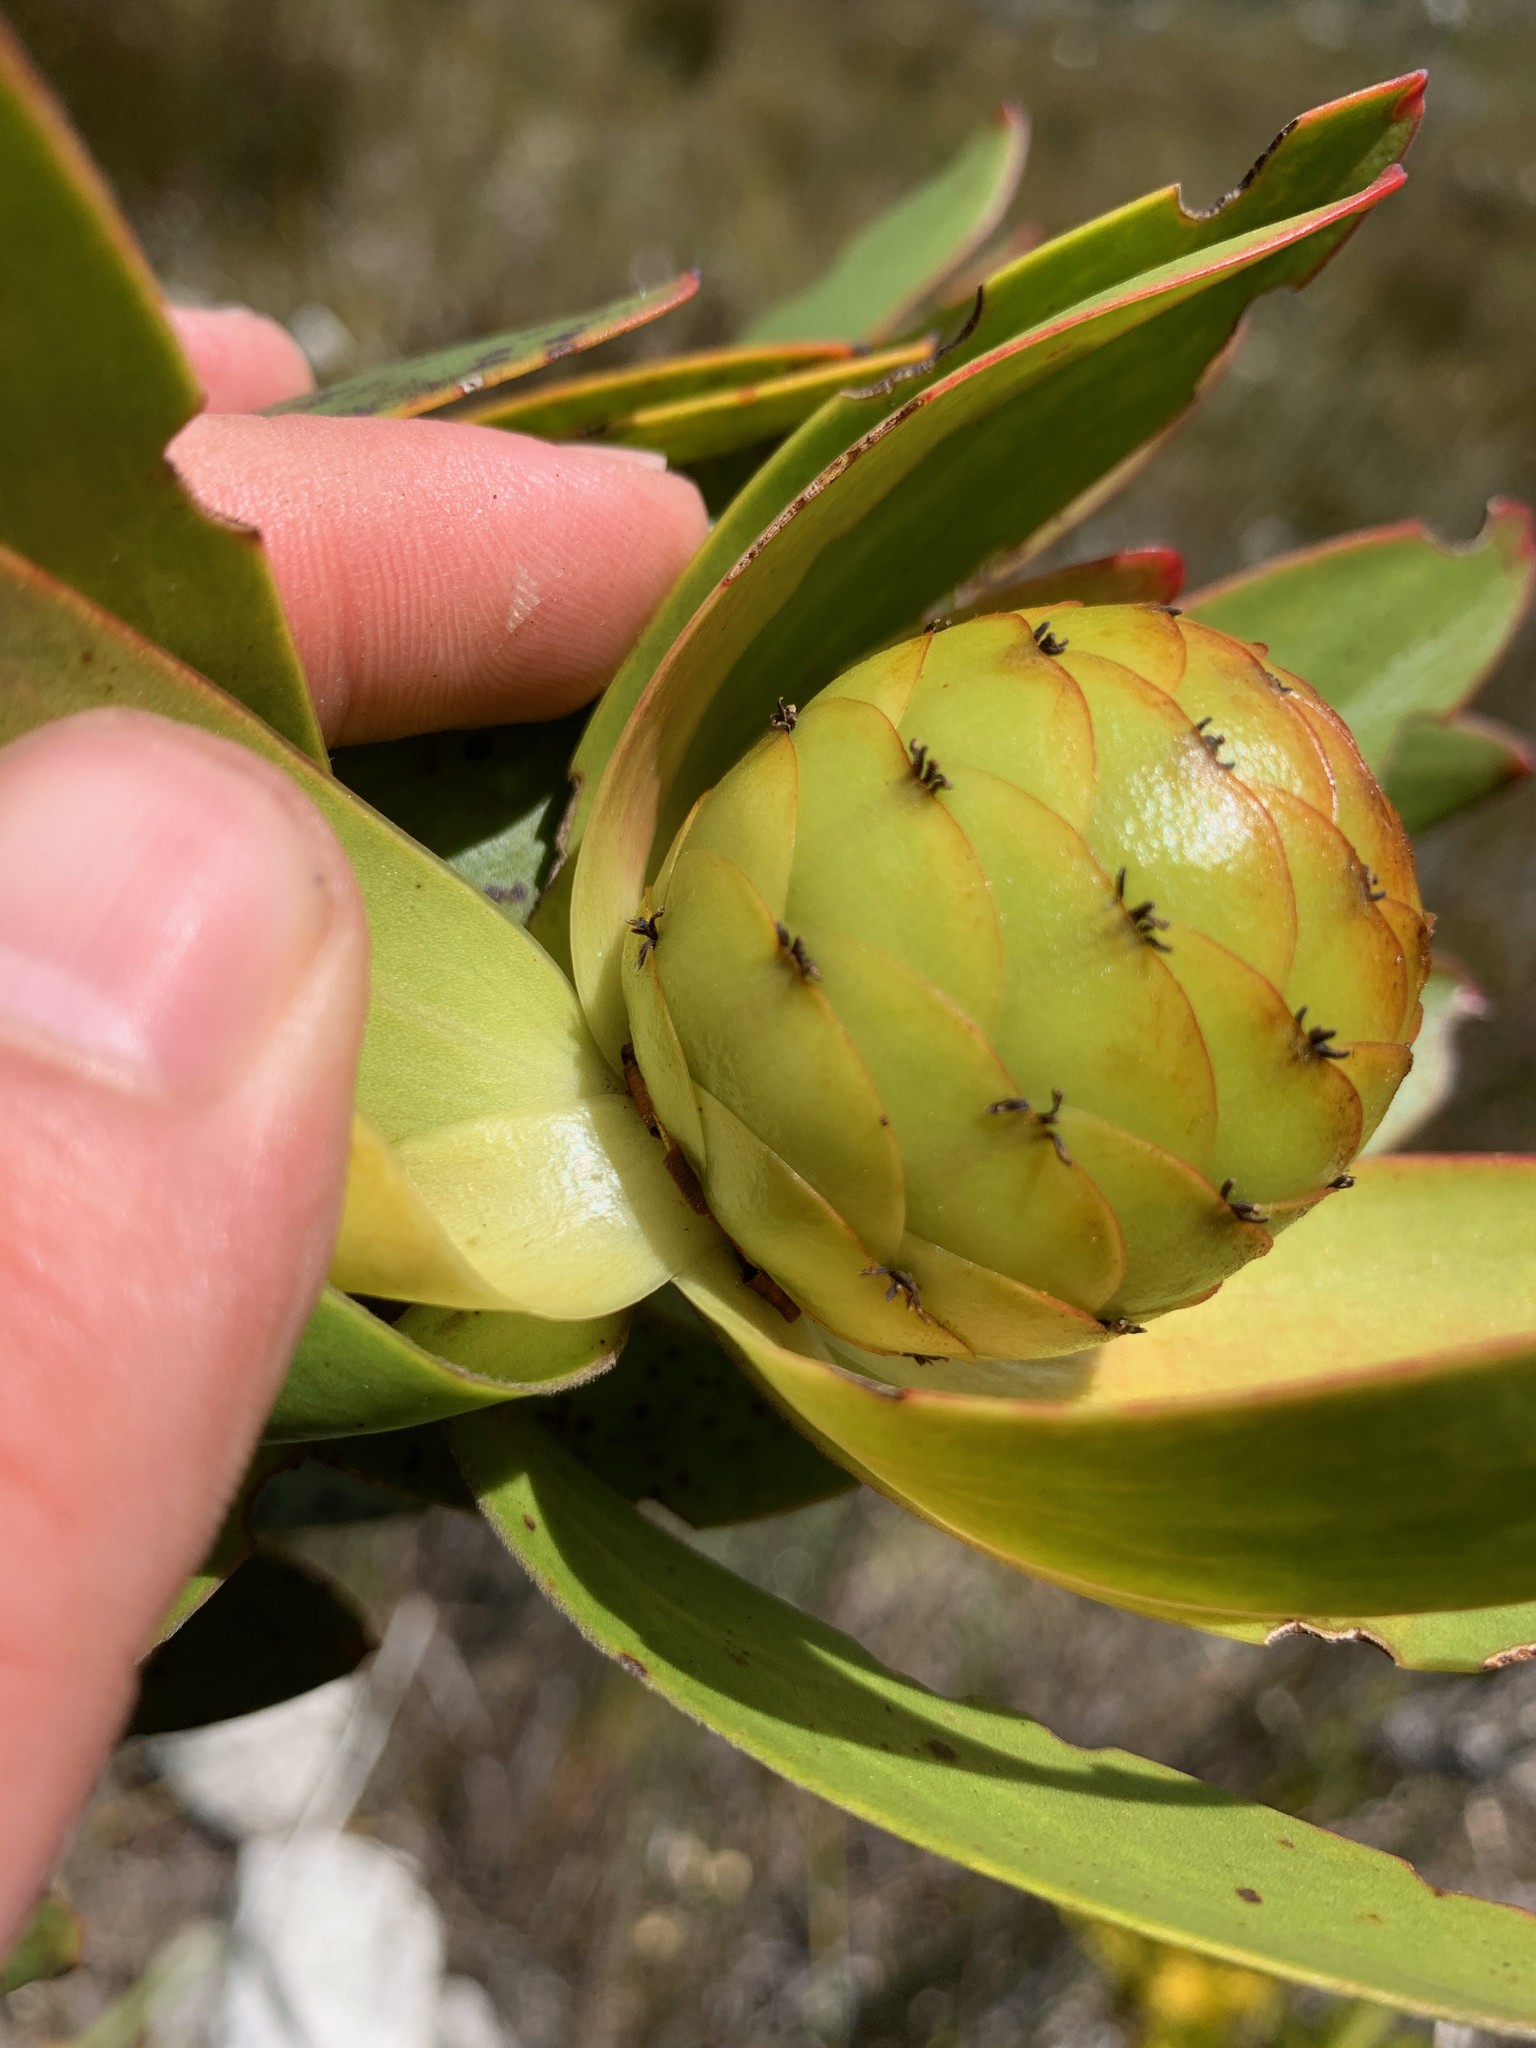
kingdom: Plantae
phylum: Tracheophyta
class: Magnoliopsida
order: Proteales
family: Proteaceae
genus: Leucadendron
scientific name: Leucadendron gandogeri
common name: Broad-leaf conebush
